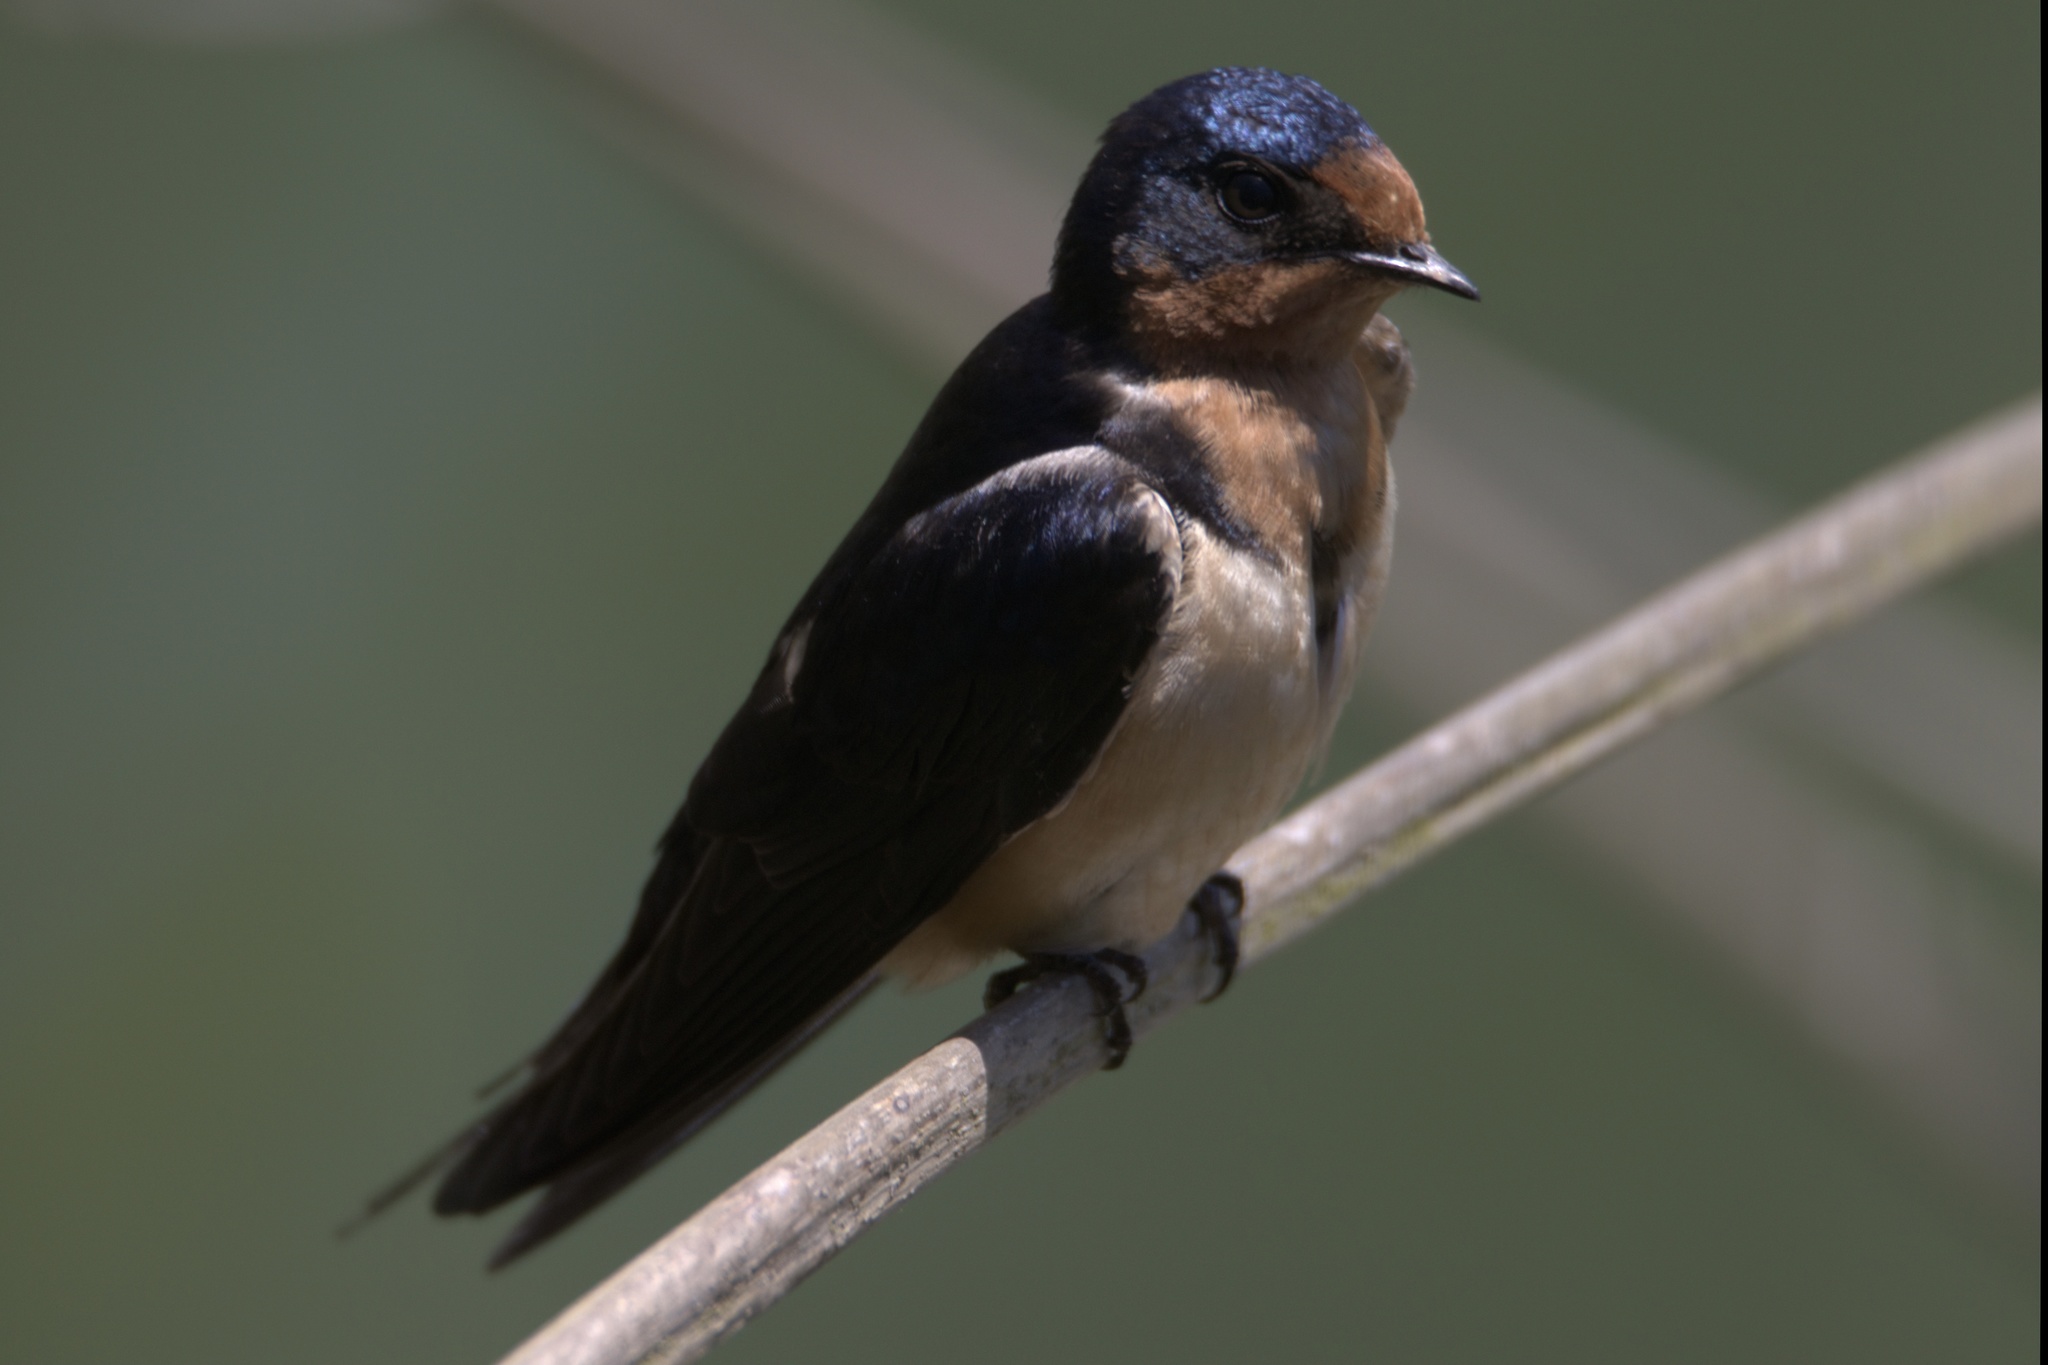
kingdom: Animalia
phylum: Chordata
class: Aves
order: Passeriformes
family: Hirundinidae
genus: Hirundo
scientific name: Hirundo rustica
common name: Barn swallow
